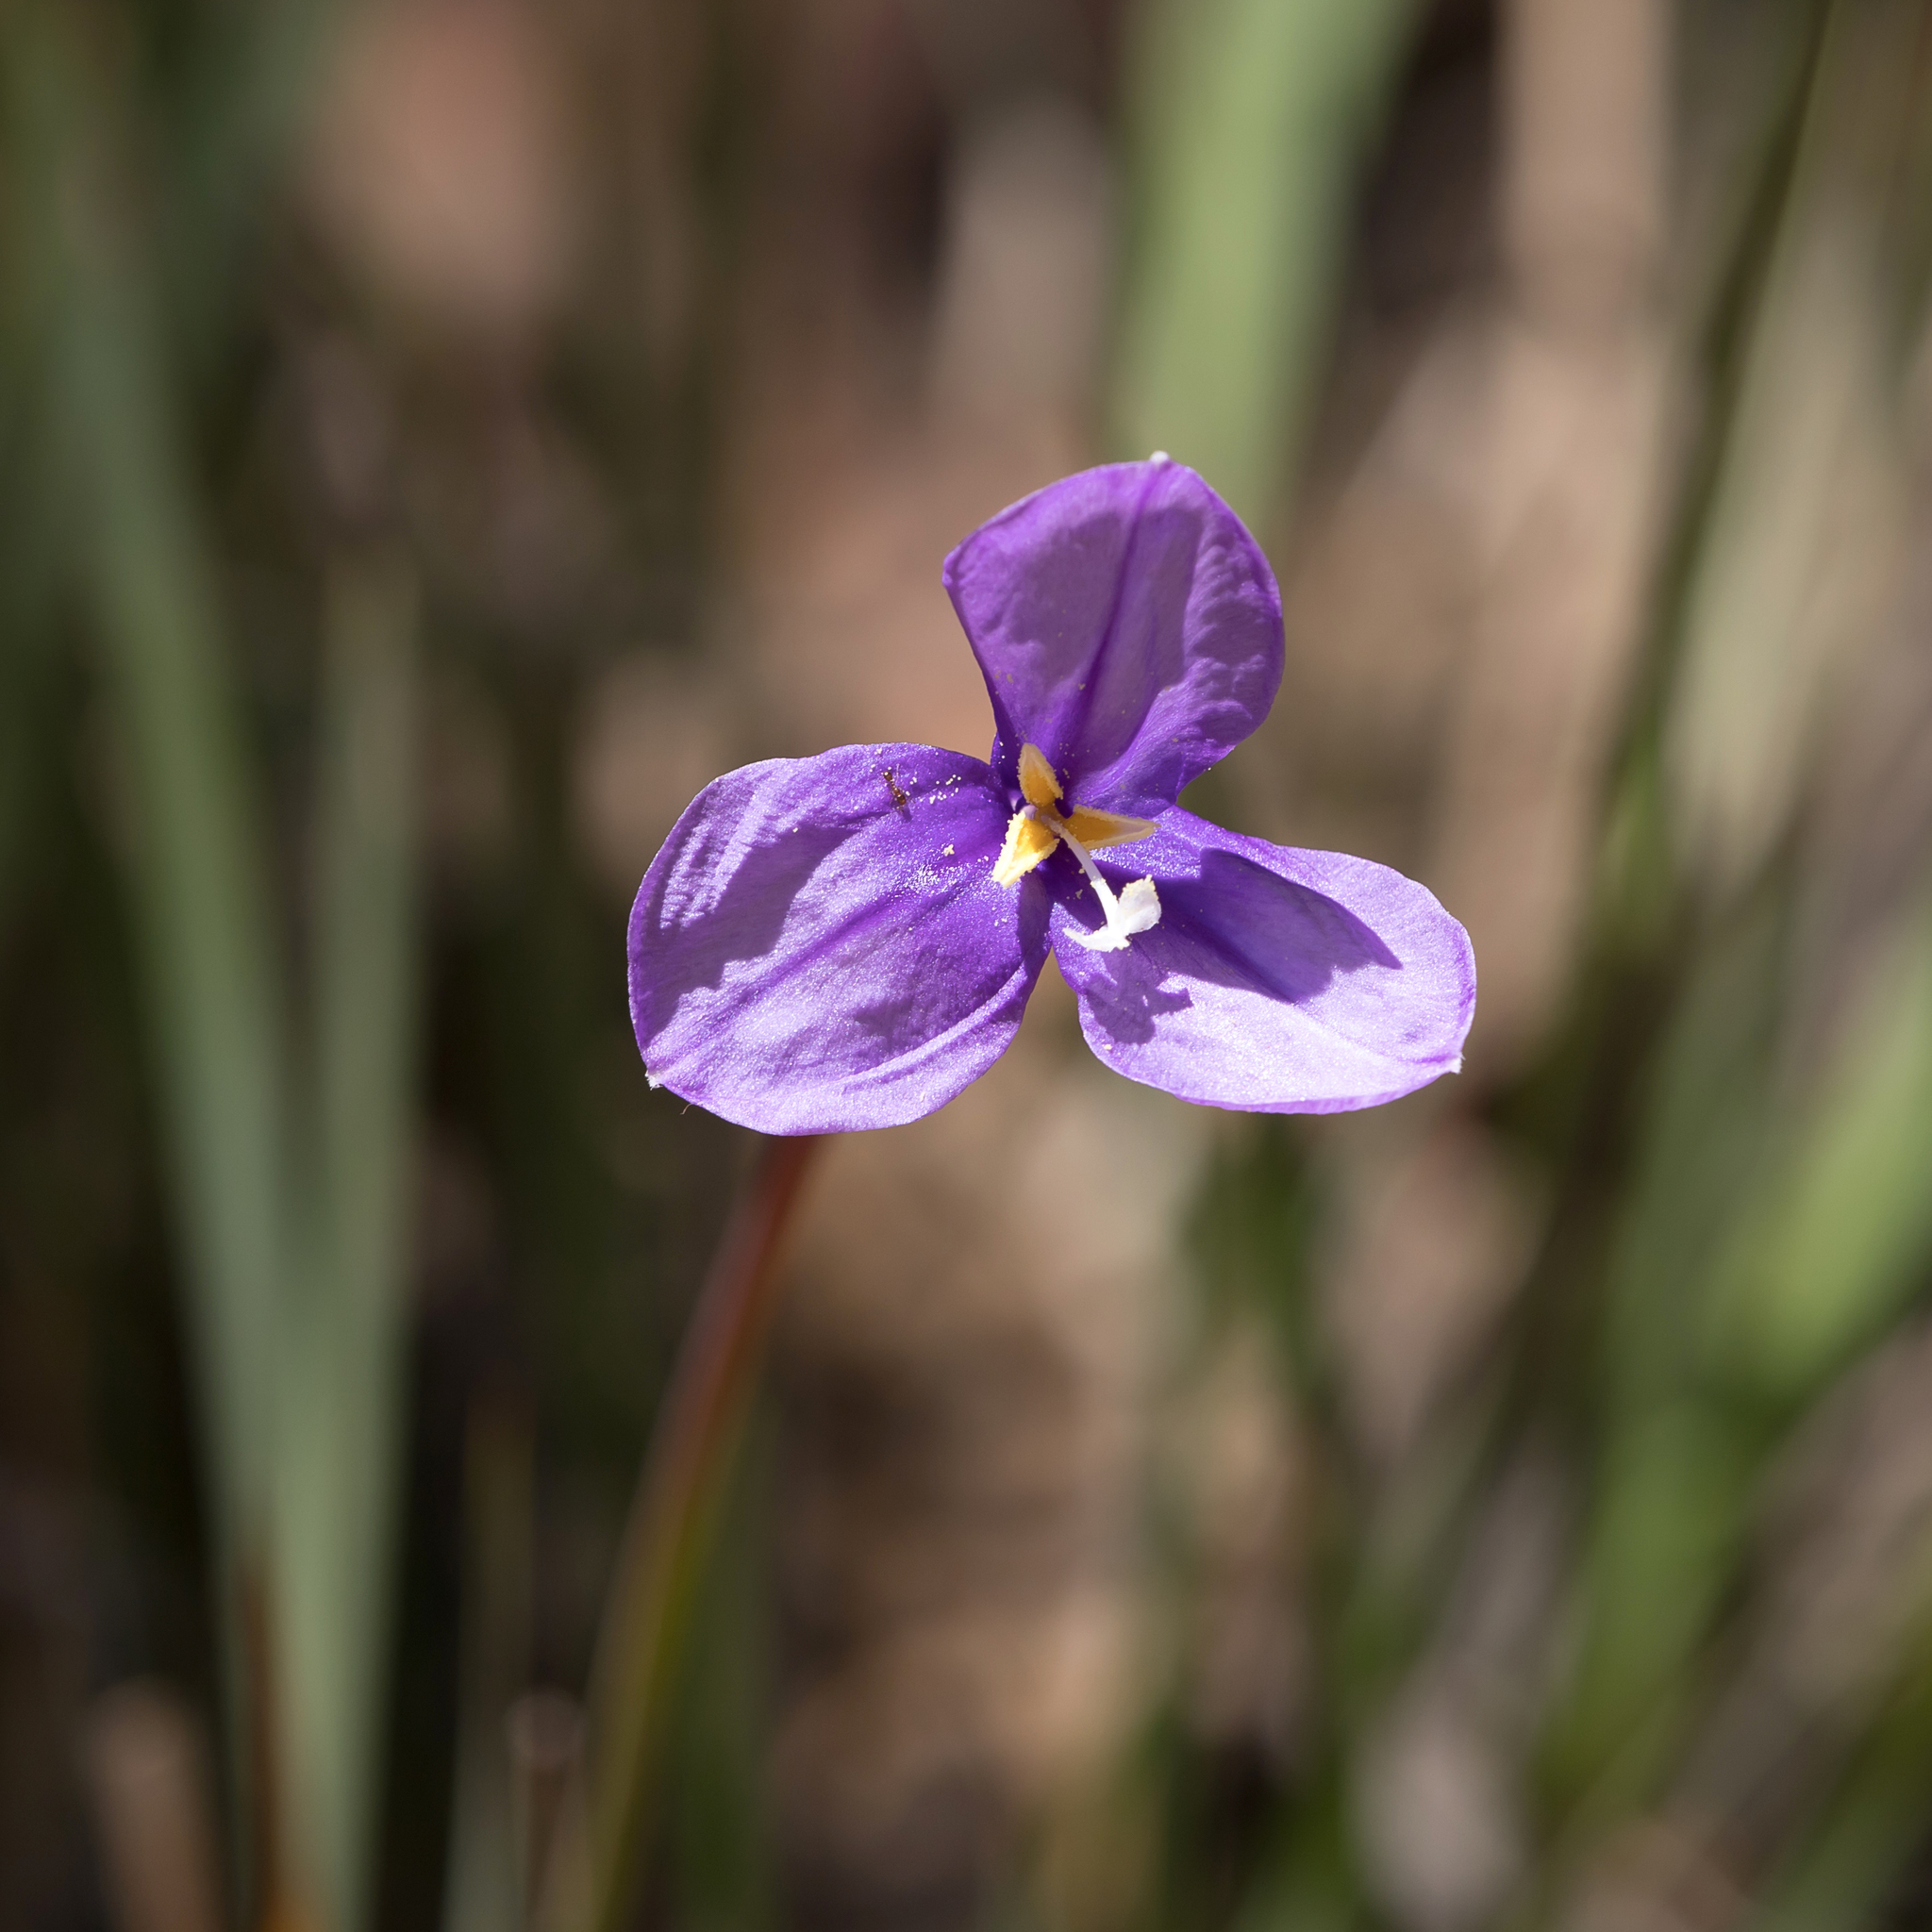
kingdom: Plantae
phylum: Tracheophyta
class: Liliopsida
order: Asparagales
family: Iridaceae
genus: Patersonia
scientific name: Patersonia occidentalis
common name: Long purple-flag
